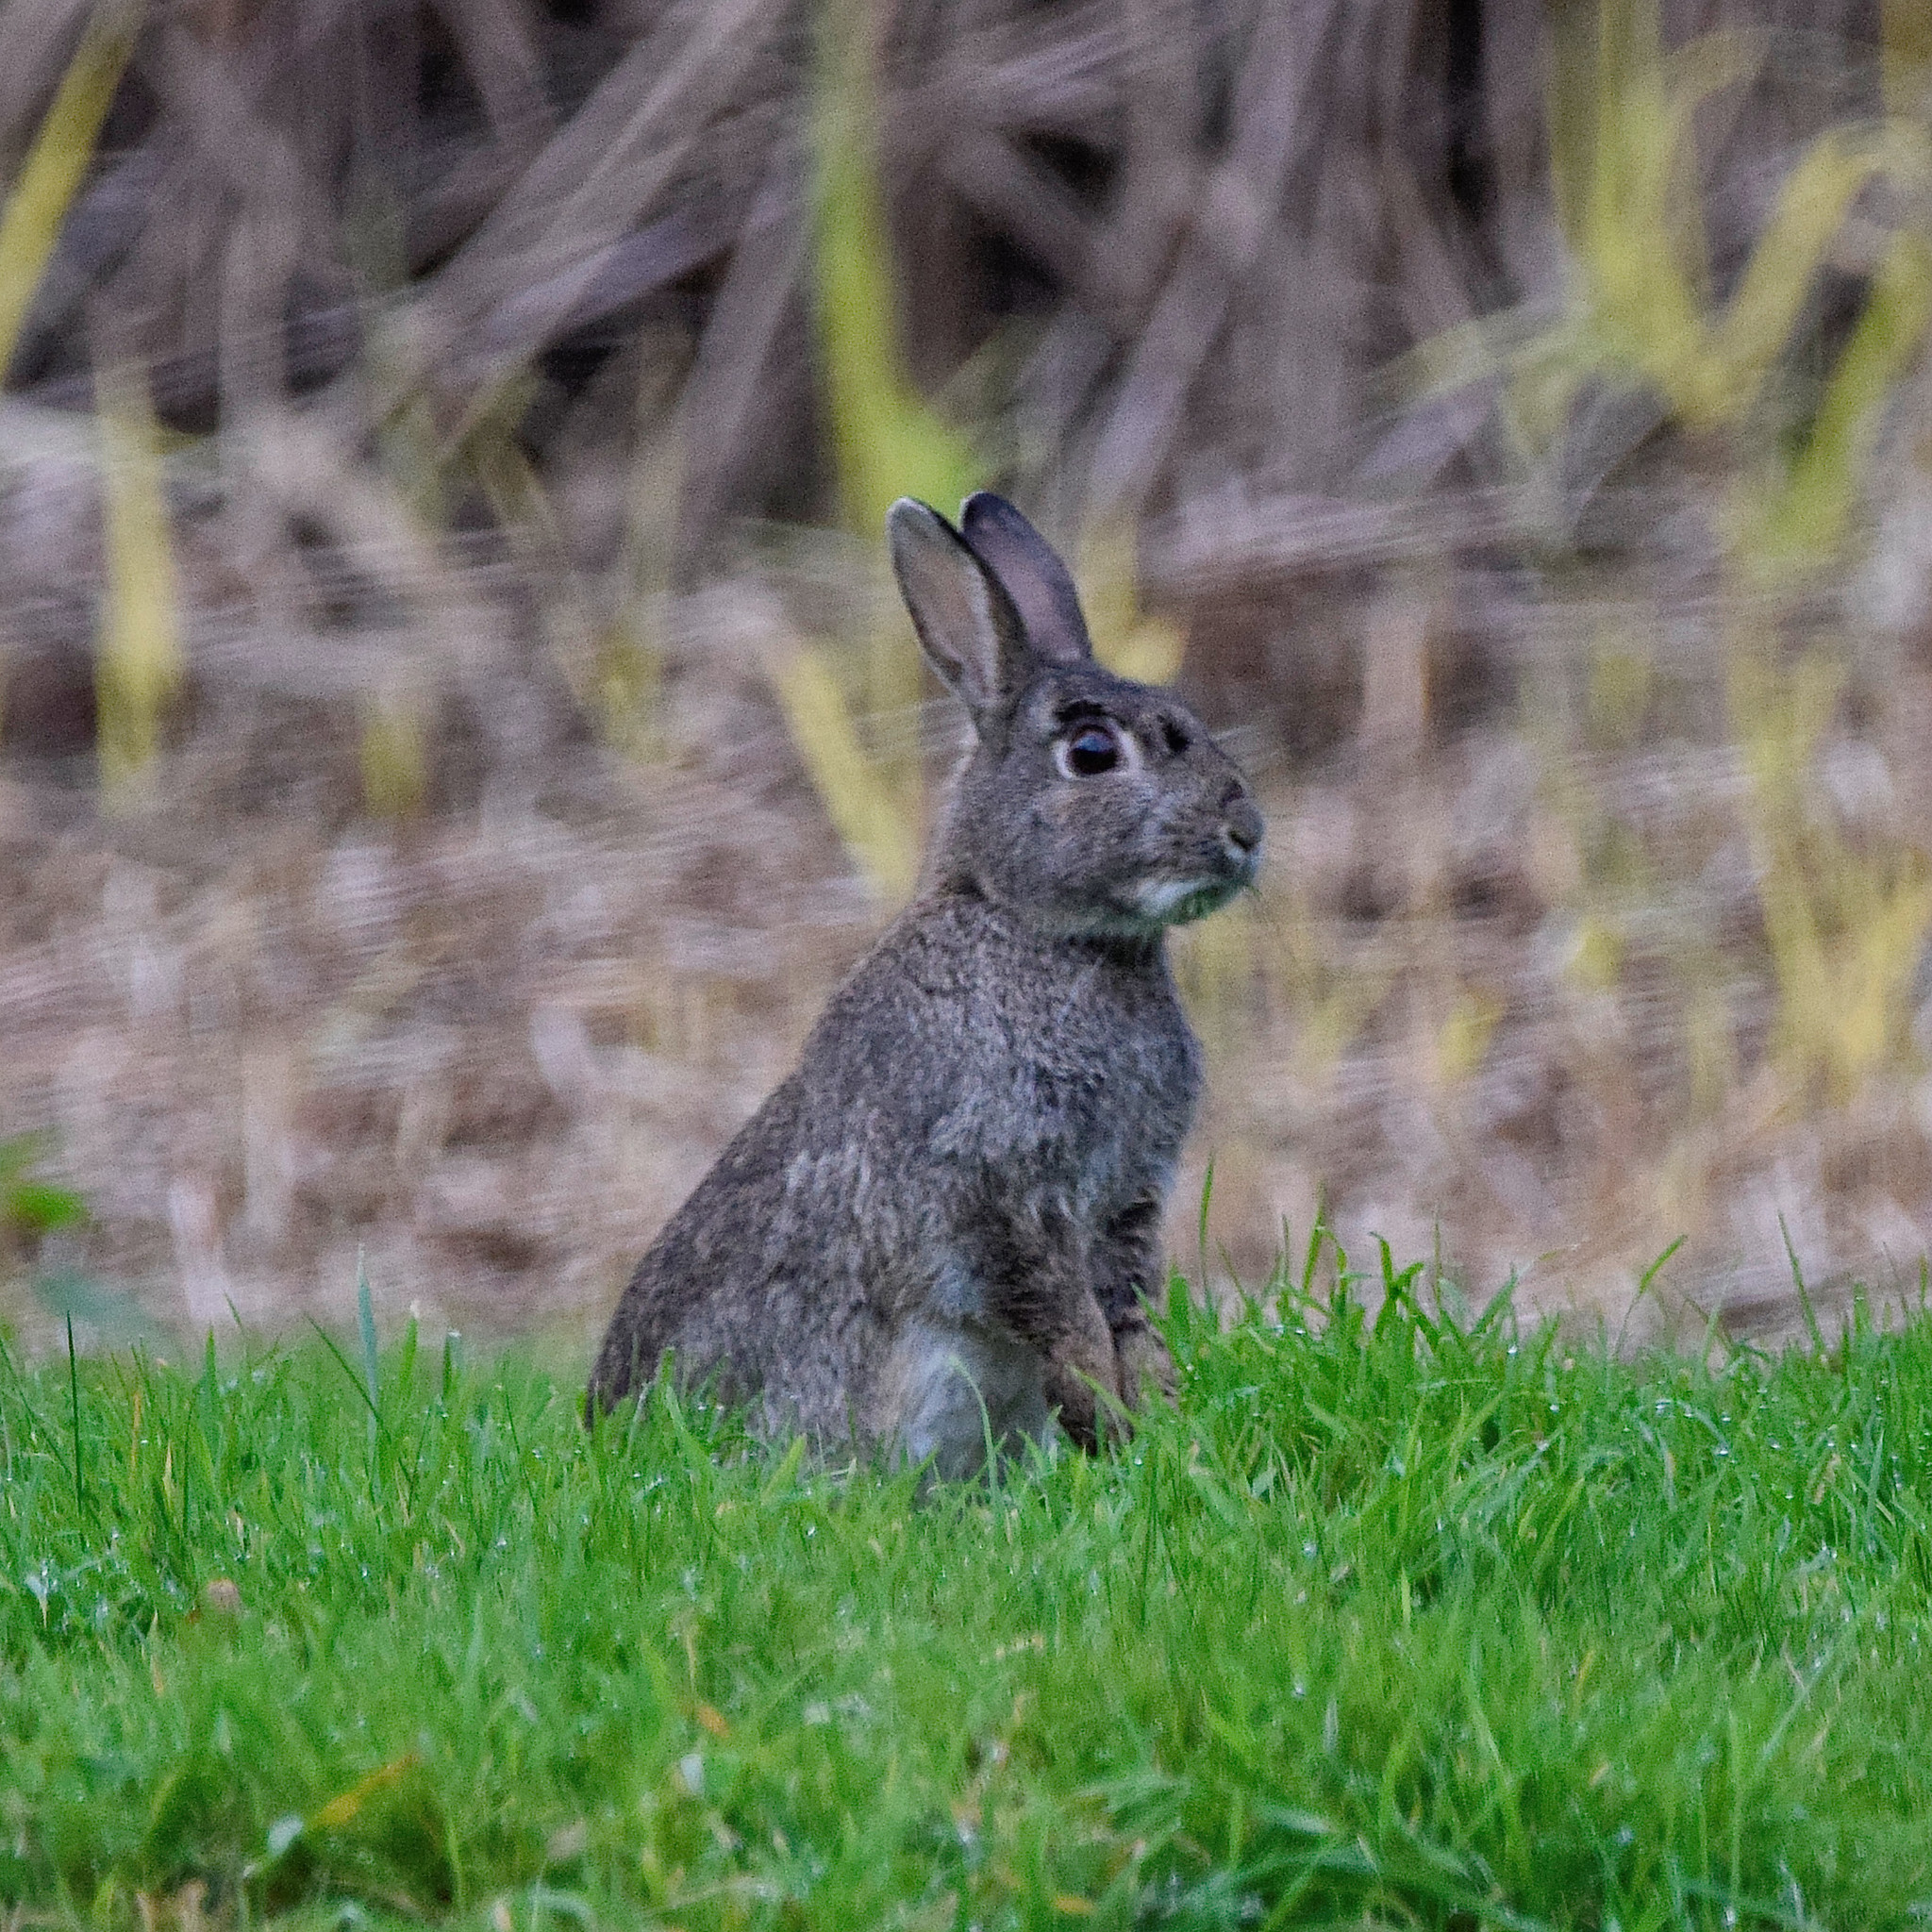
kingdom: Animalia
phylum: Chordata
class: Mammalia
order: Lagomorpha
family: Leporidae
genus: Oryctolagus
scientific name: Oryctolagus cuniculus
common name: European rabbit
